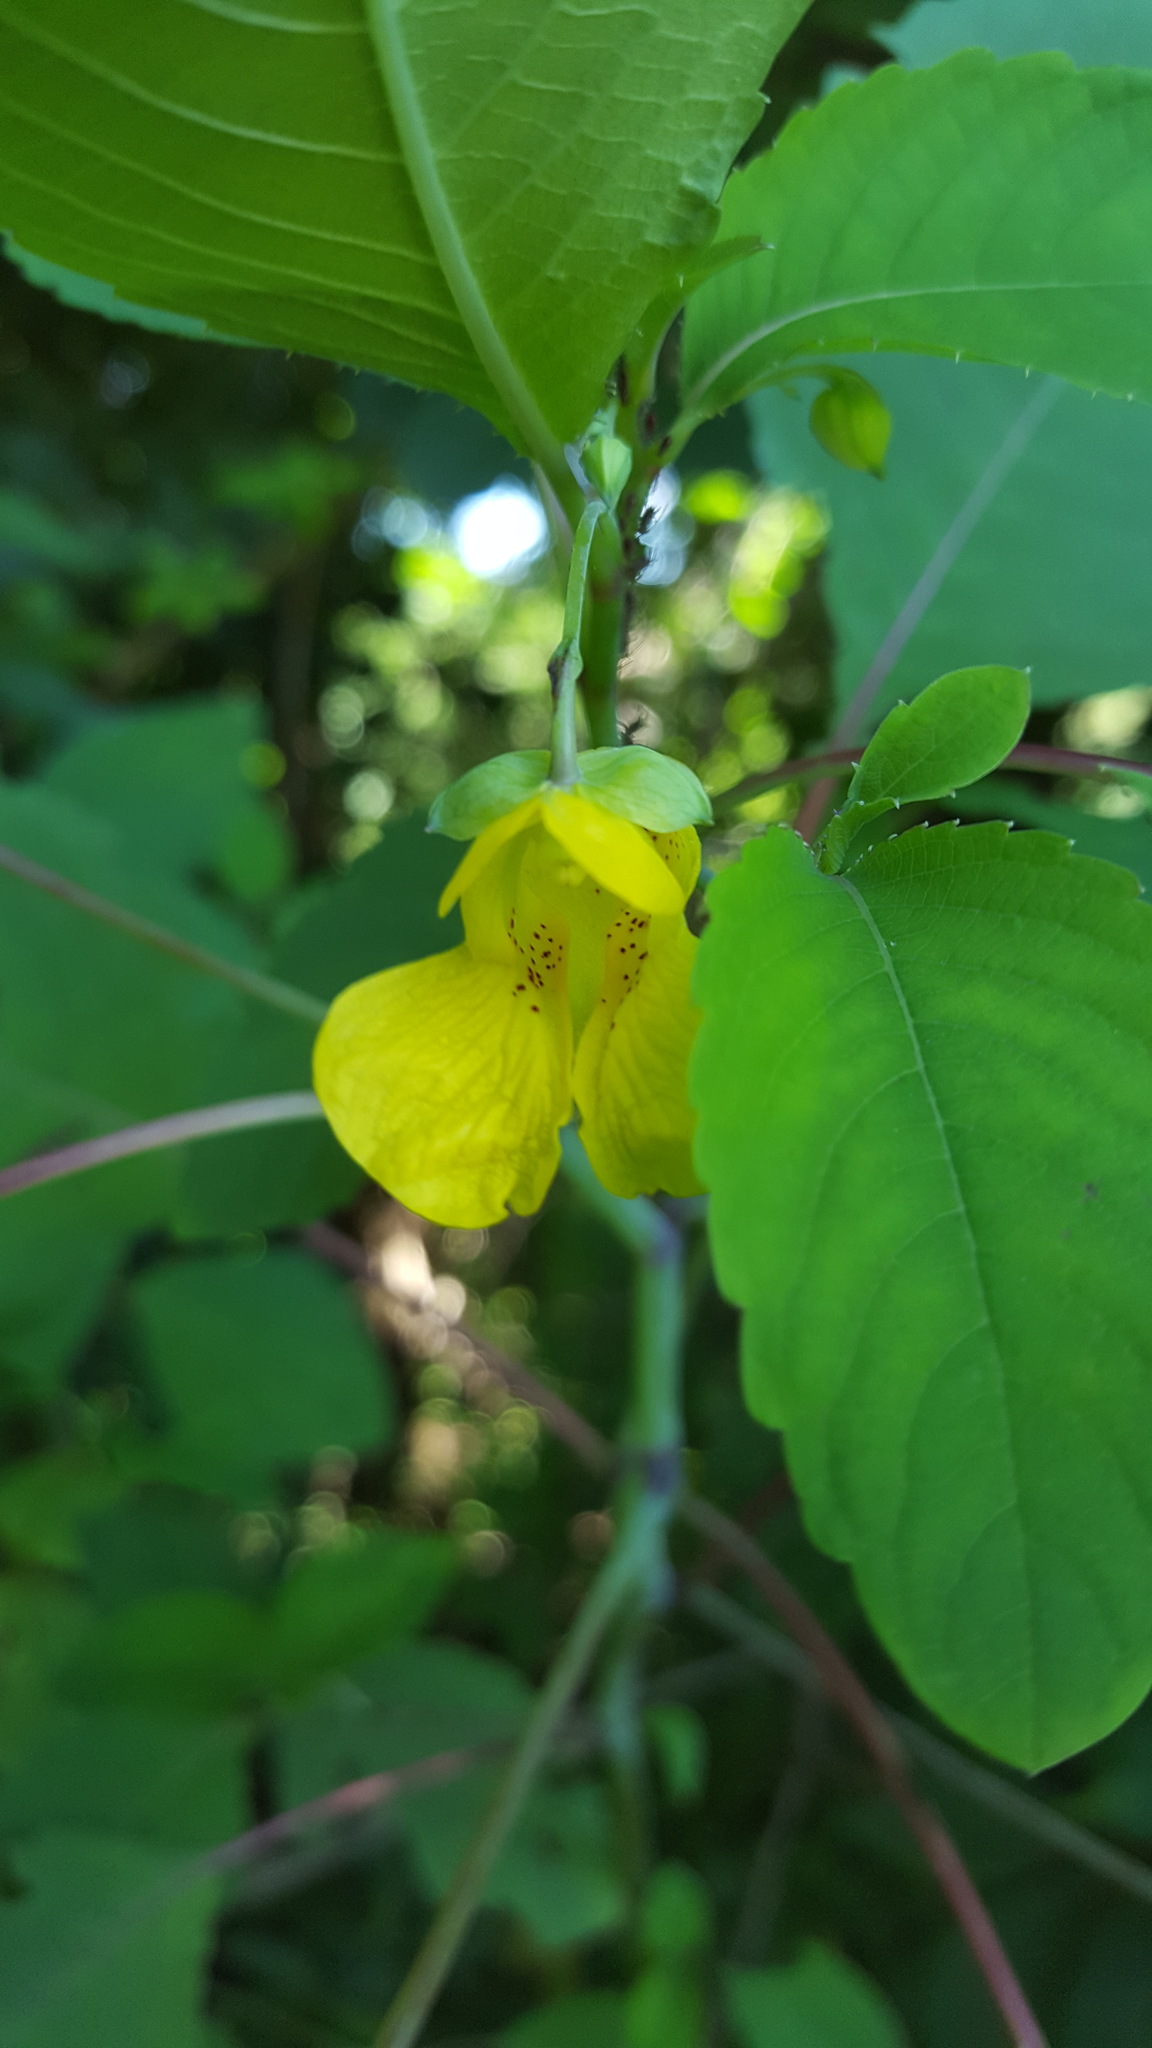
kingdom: Plantae
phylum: Tracheophyta
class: Magnoliopsida
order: Ericales
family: Balsaminaceae
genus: Impatiens
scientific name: Impatiens pallida
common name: Pale snapweed
